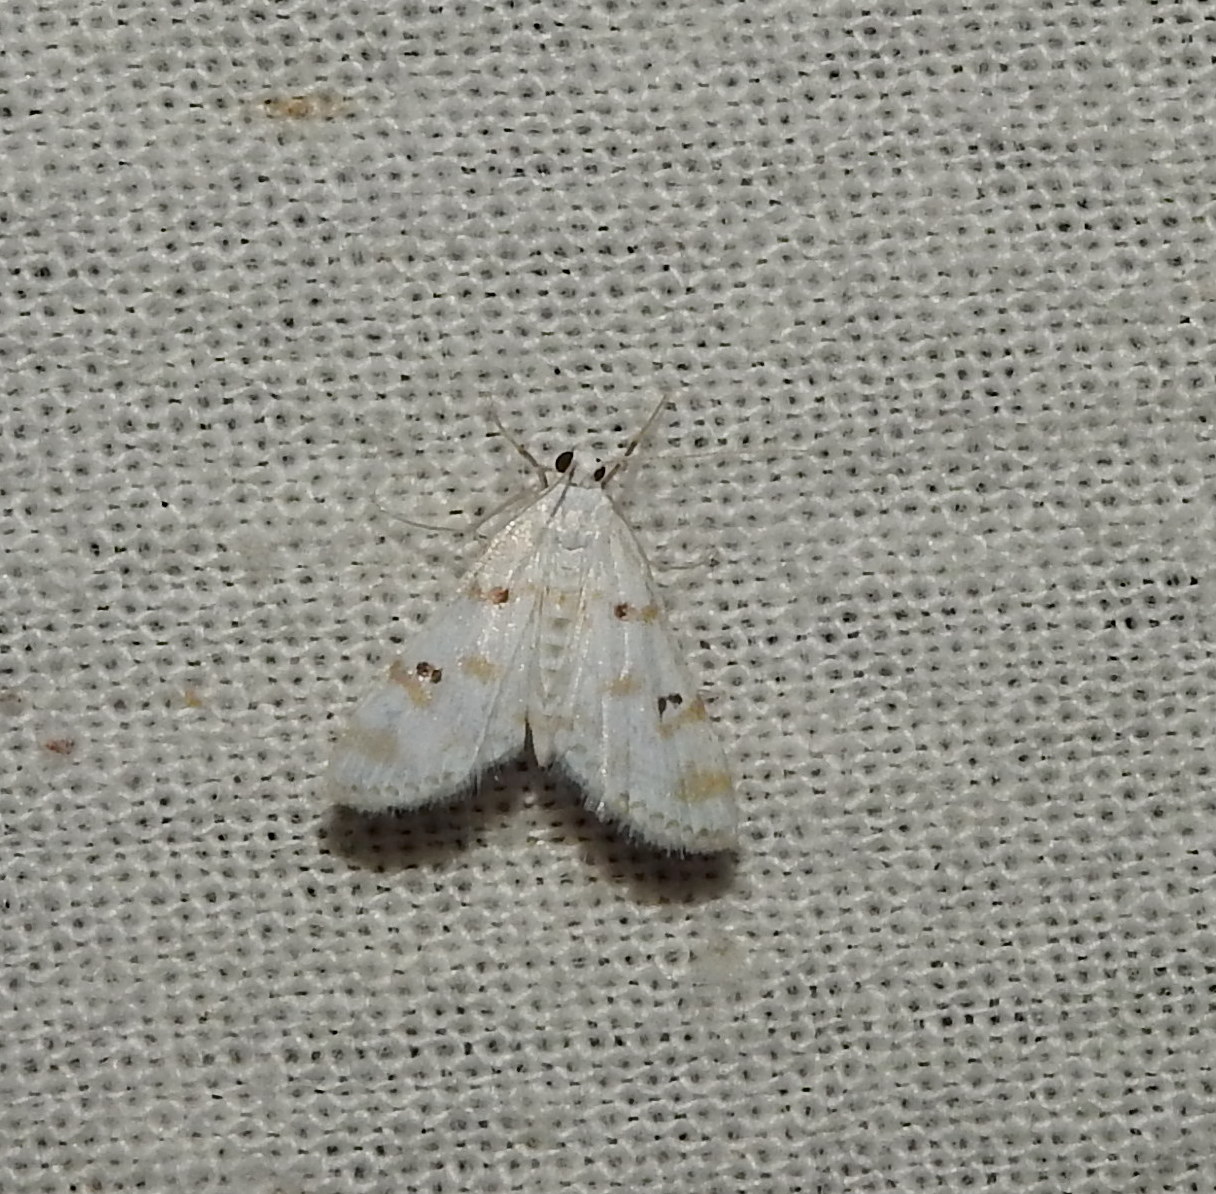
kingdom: Animalia
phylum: Arthropoda
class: Insecta
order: Lepidoptera
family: Crambidae
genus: Parapoynx
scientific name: Parapoynx stagnalis
